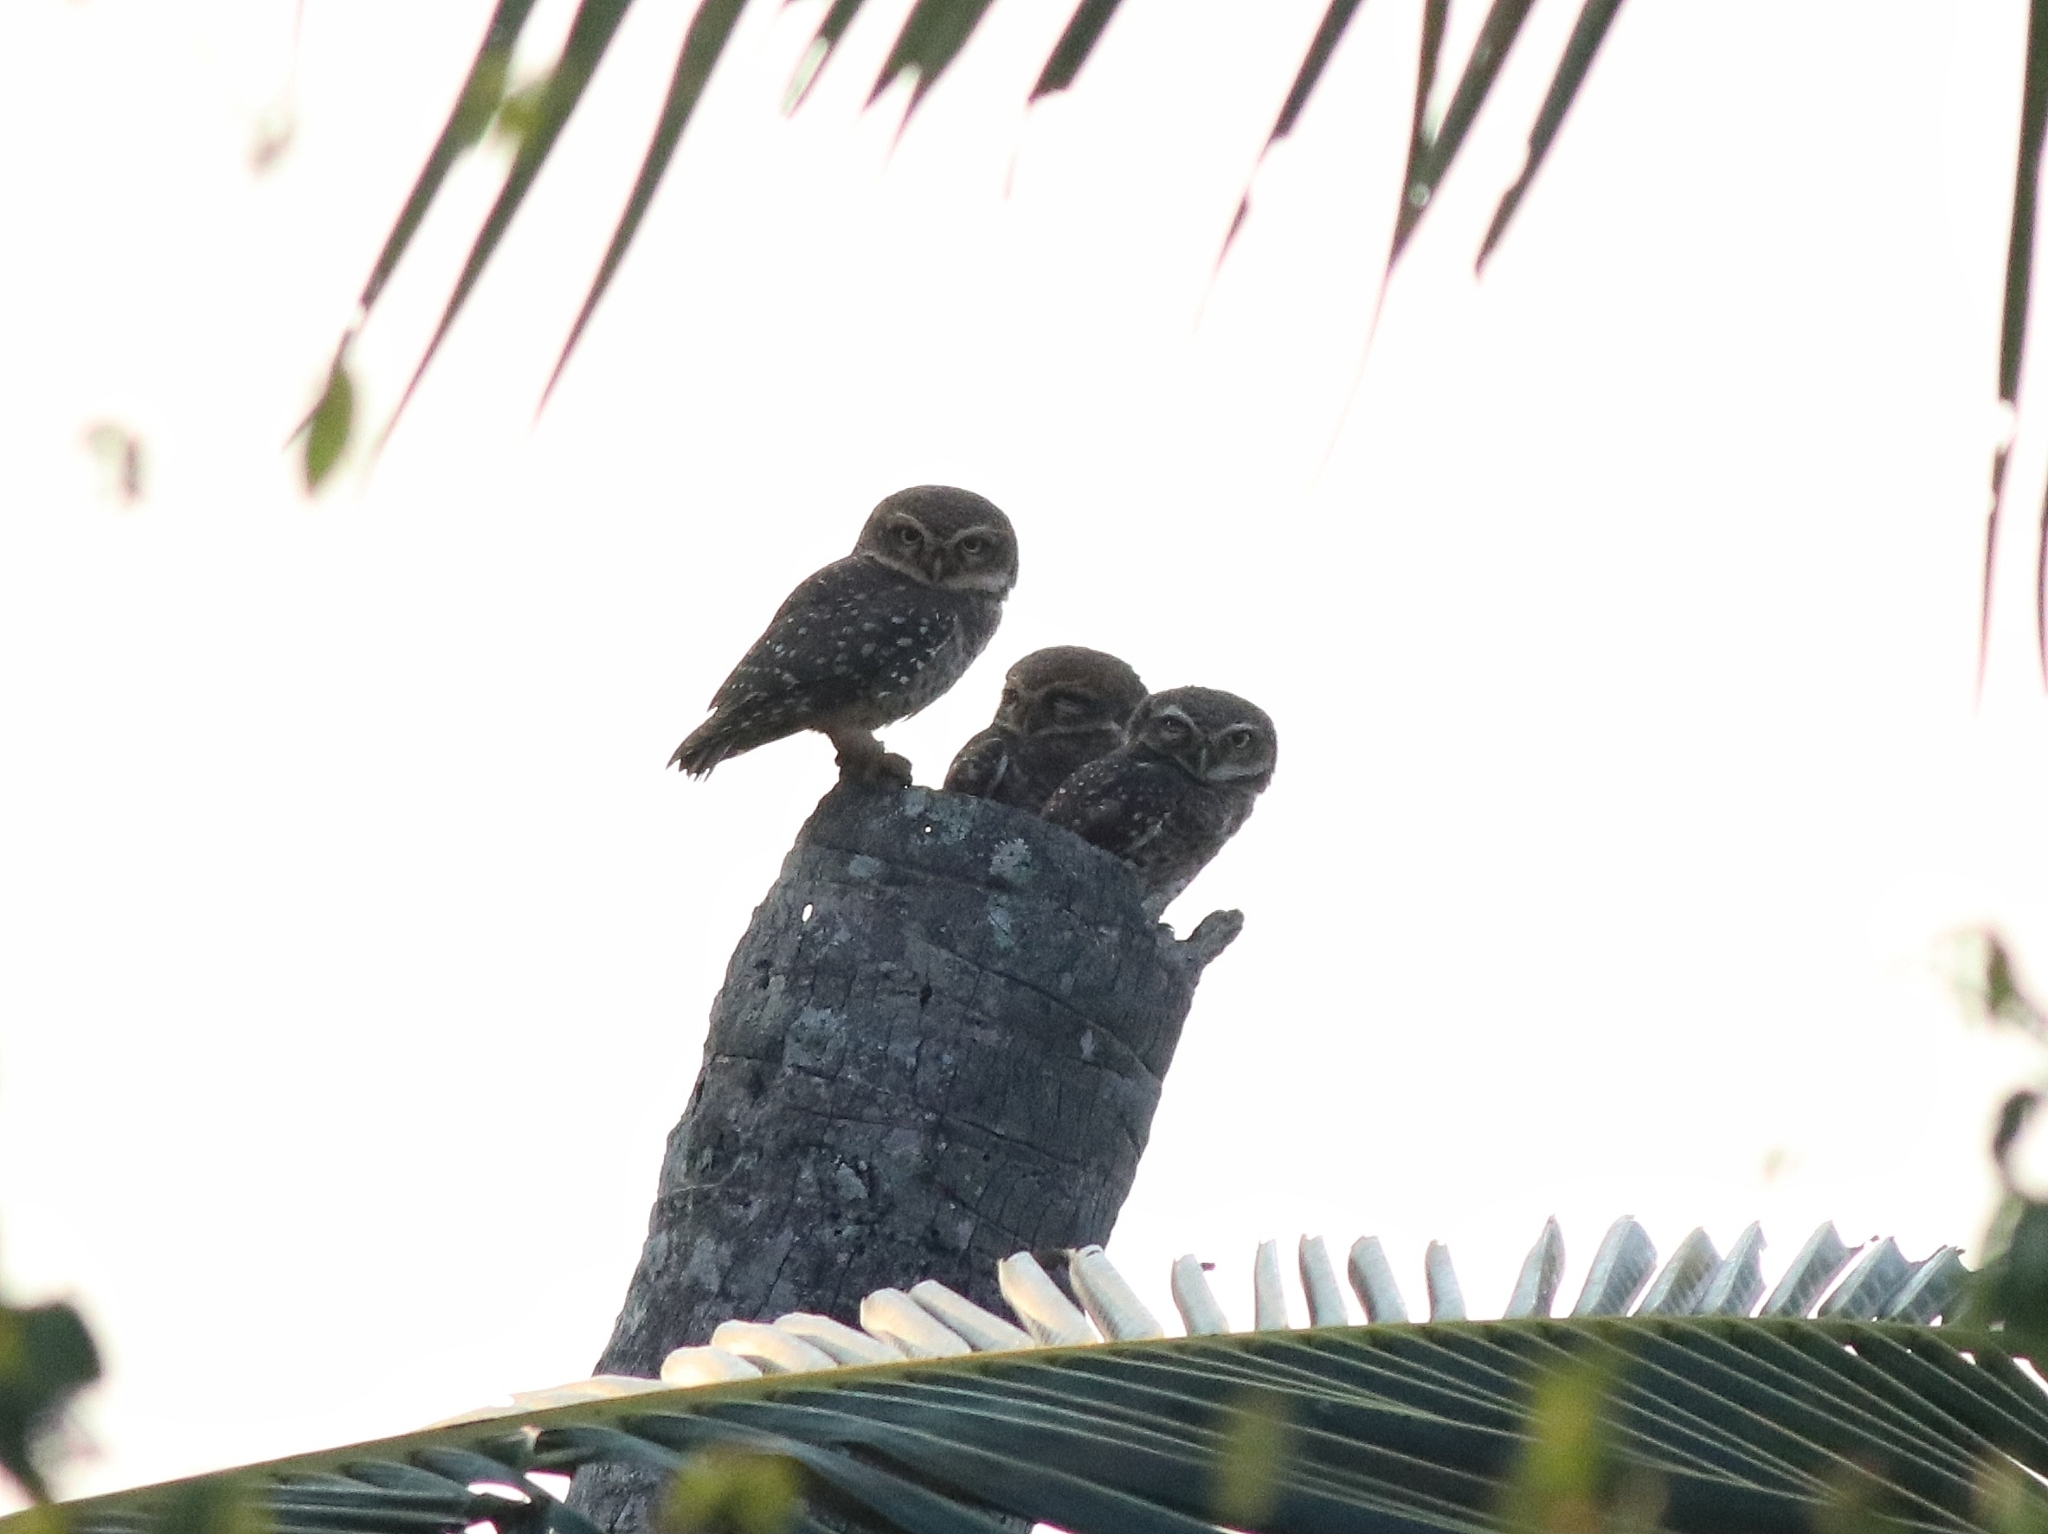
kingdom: Animalia
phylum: Chordata
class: Aves
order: Strigiformes
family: Strigidae
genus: Athene
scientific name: Athene brama
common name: Spotted owlet
